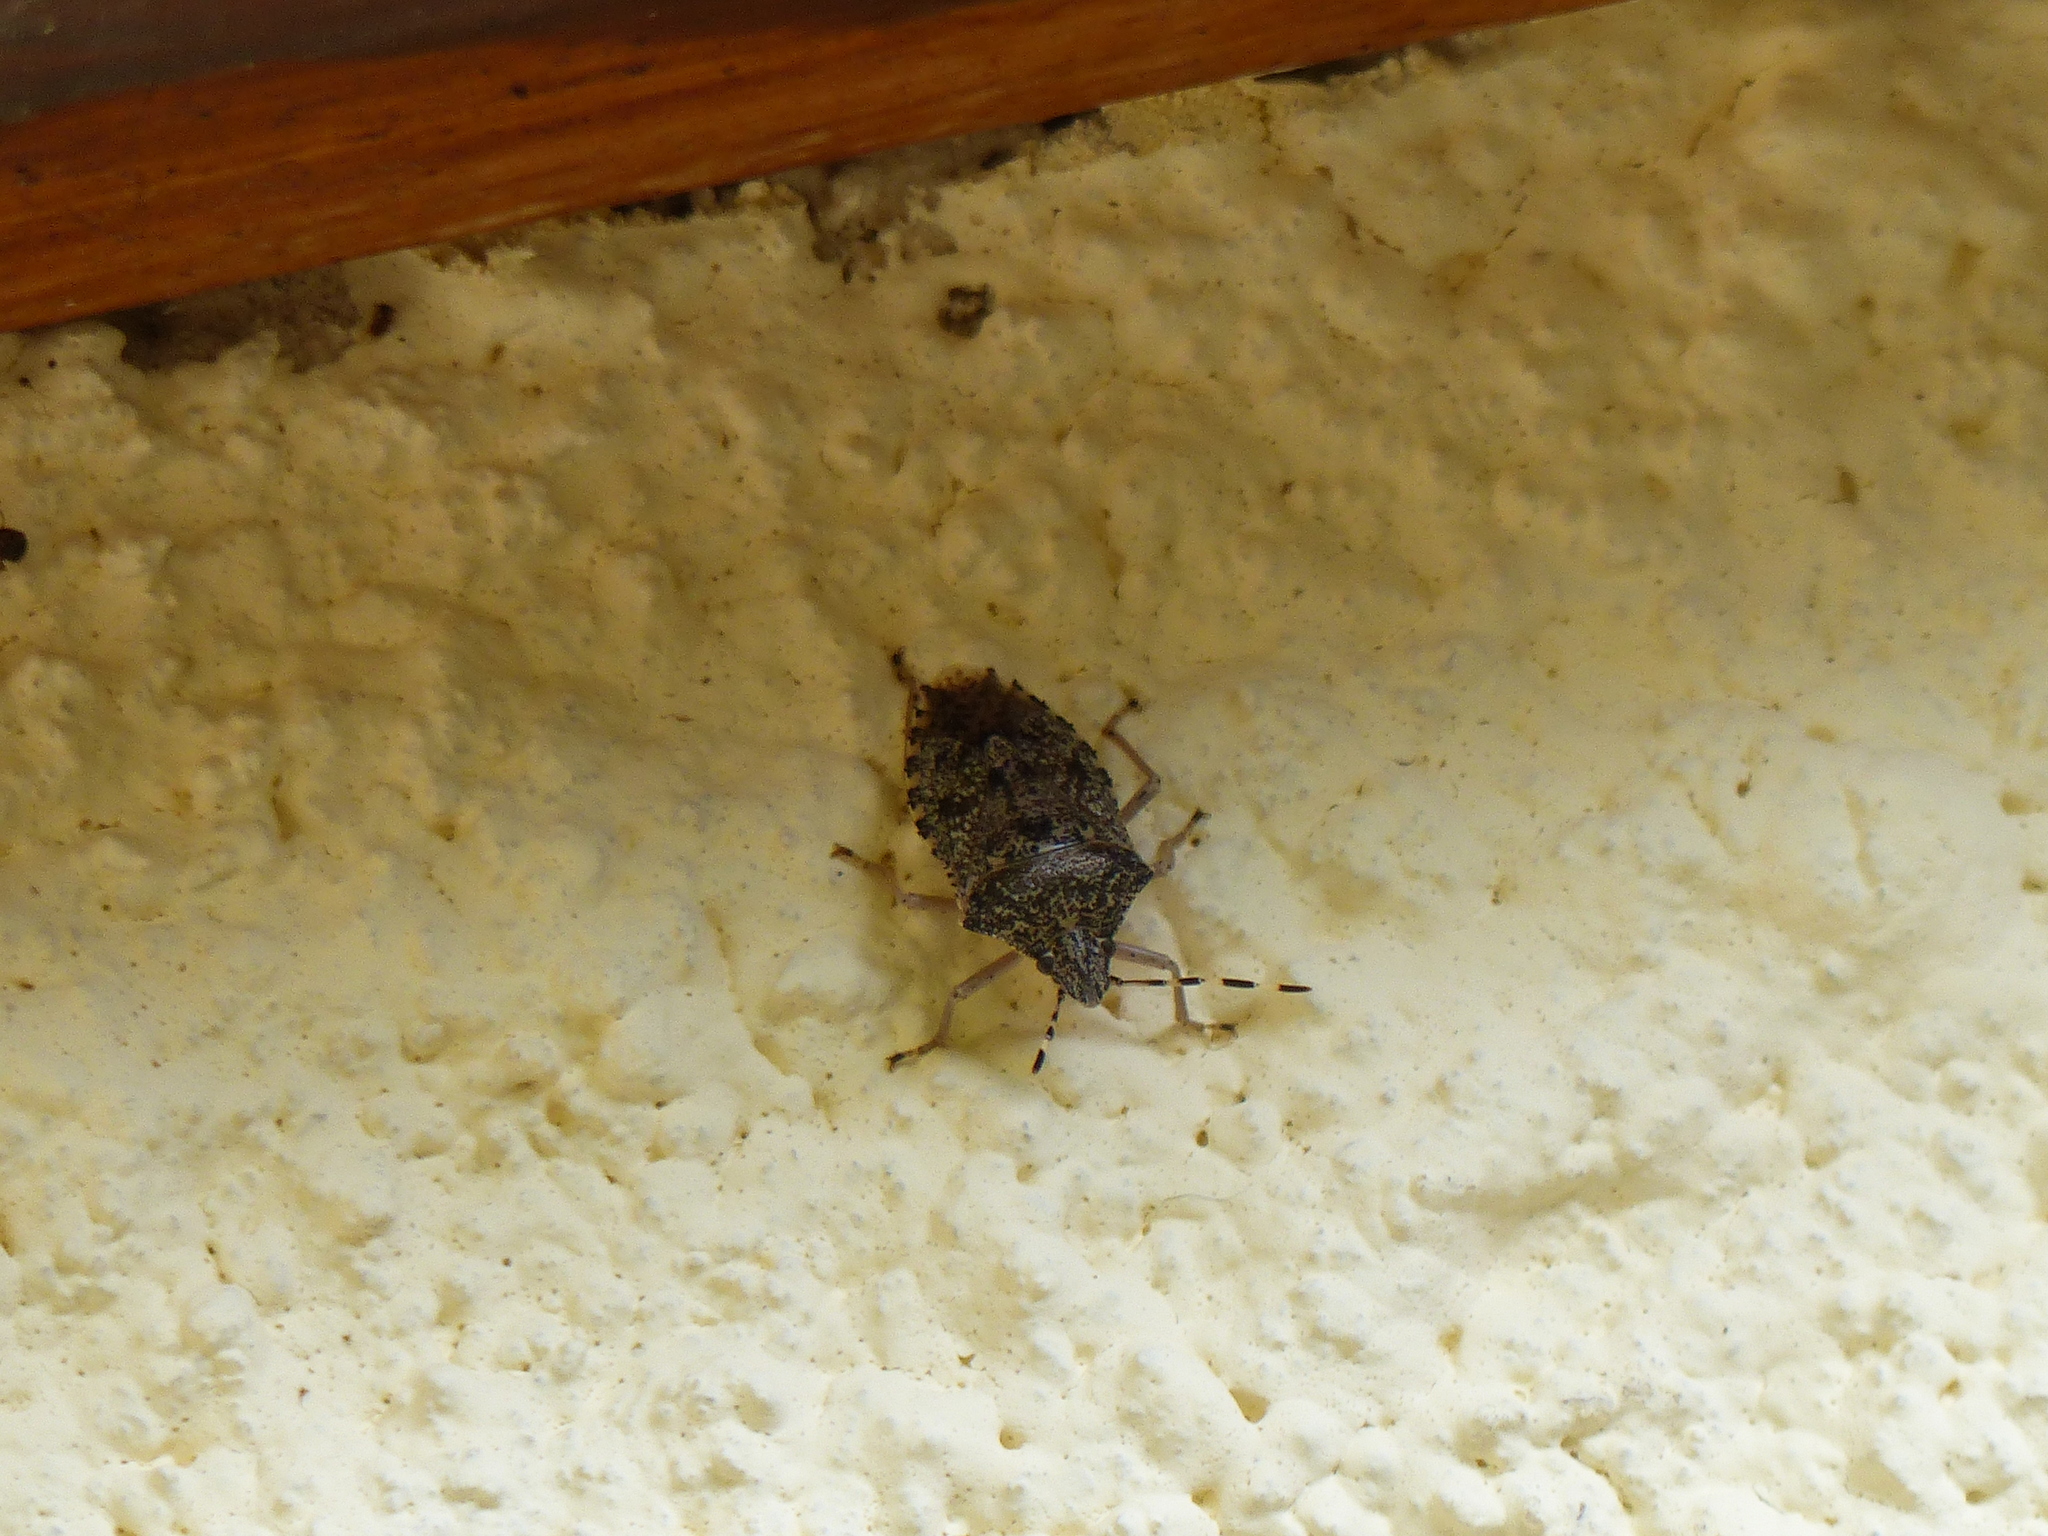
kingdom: Animalia
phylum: Arthropoda
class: Insecta
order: Hemiptera
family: Pentatomidae
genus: Rhaphigaster
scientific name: Rhaphigaster nebulosa
